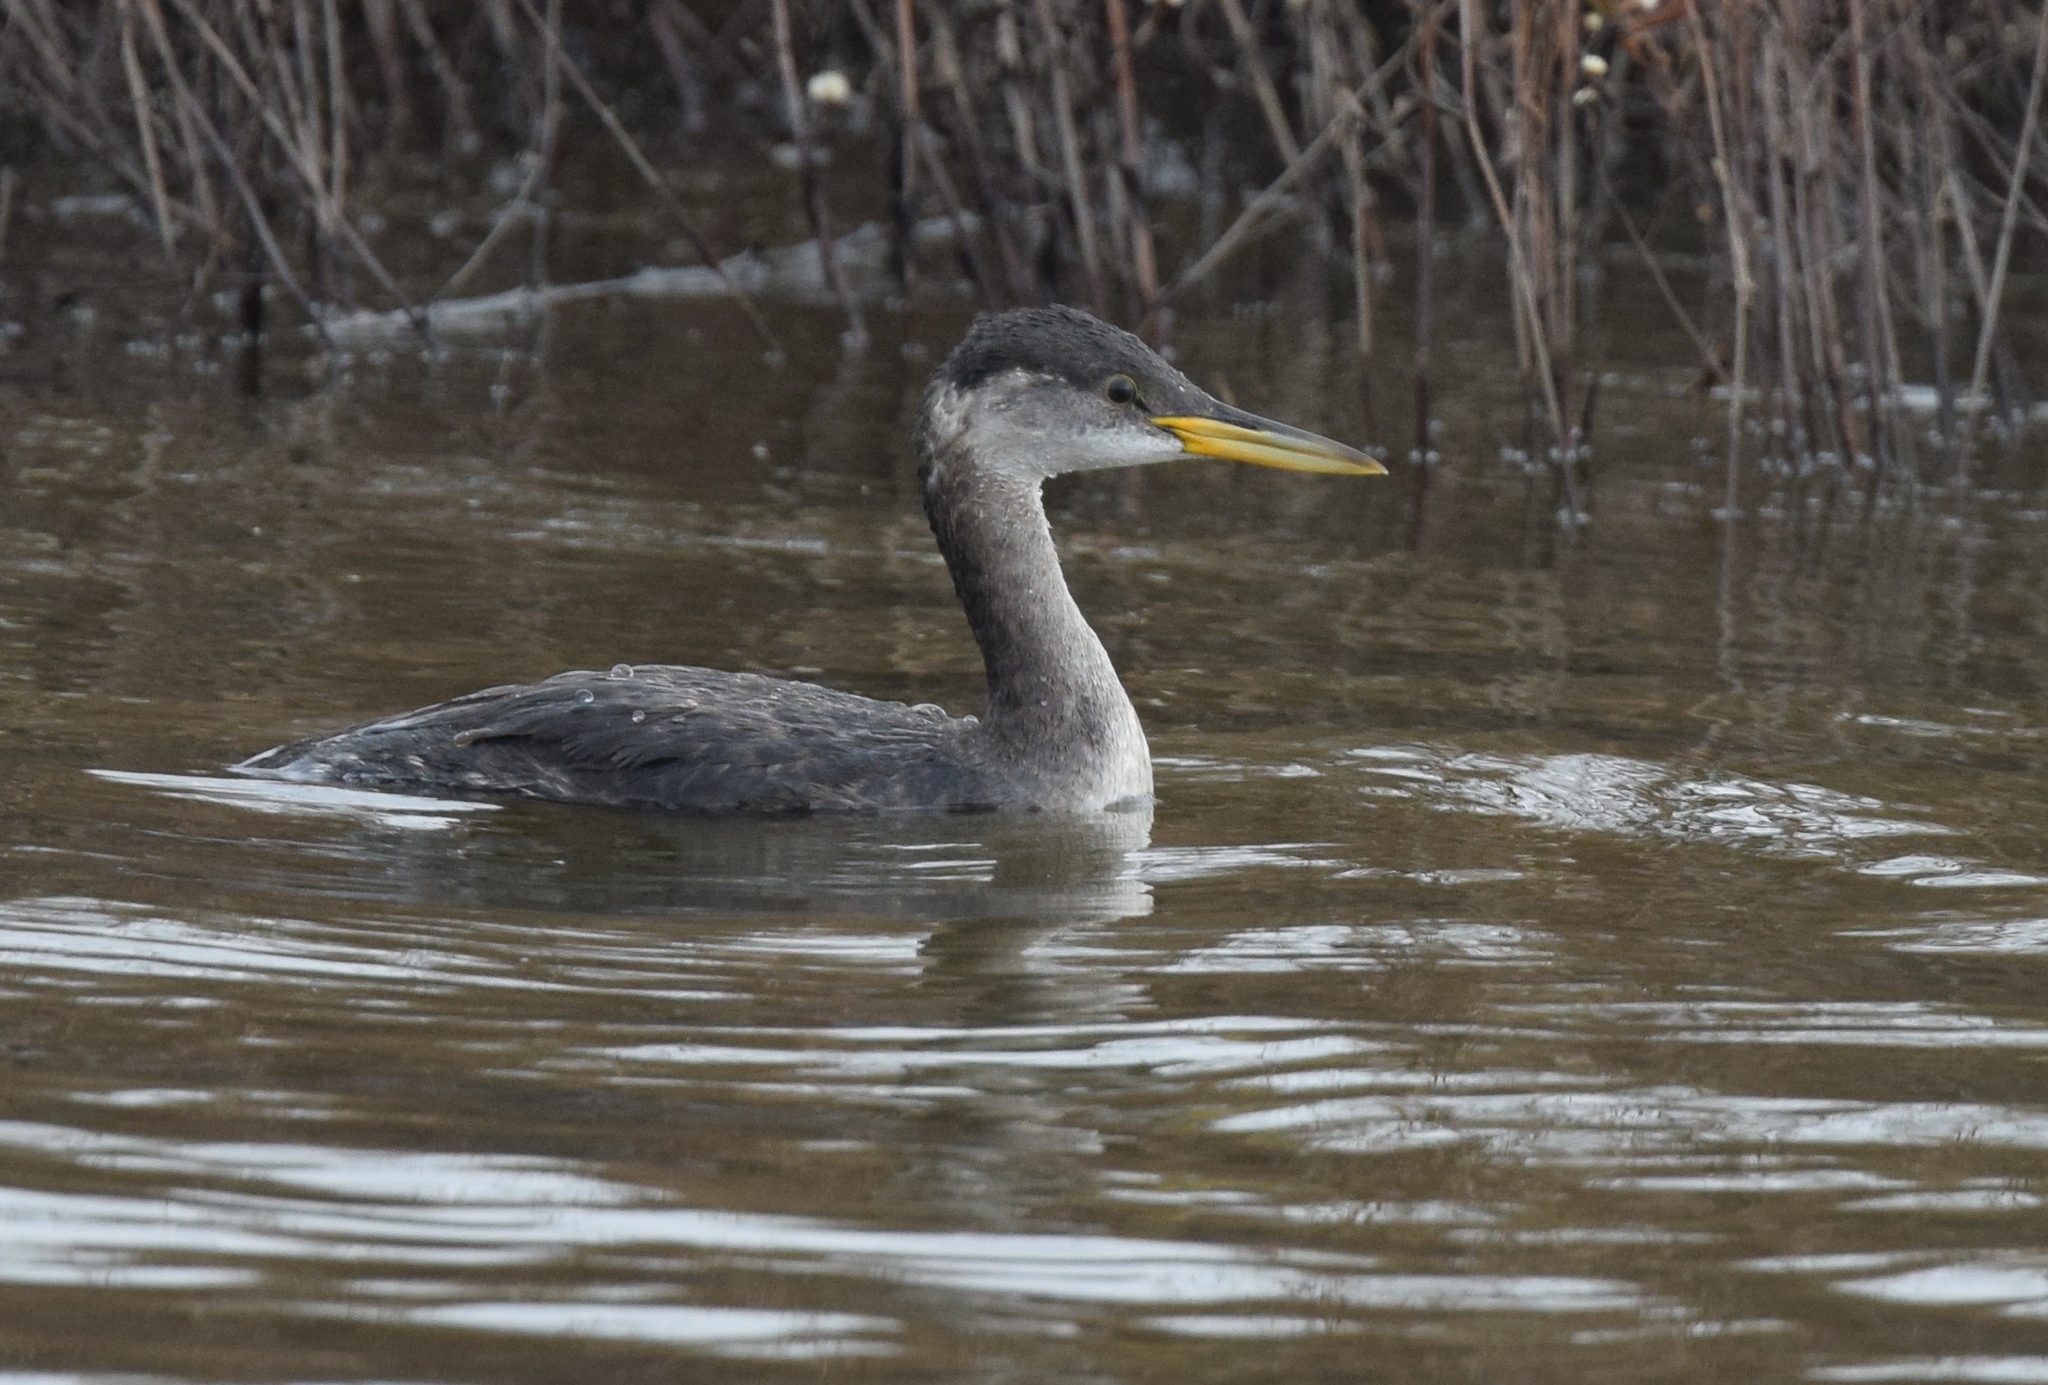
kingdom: Animalia
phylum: Chordata
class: Aves
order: Podicipediformes
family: Podicipedidae
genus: Podiceps
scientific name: Podiceps grisegena
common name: Red-necked grebe
